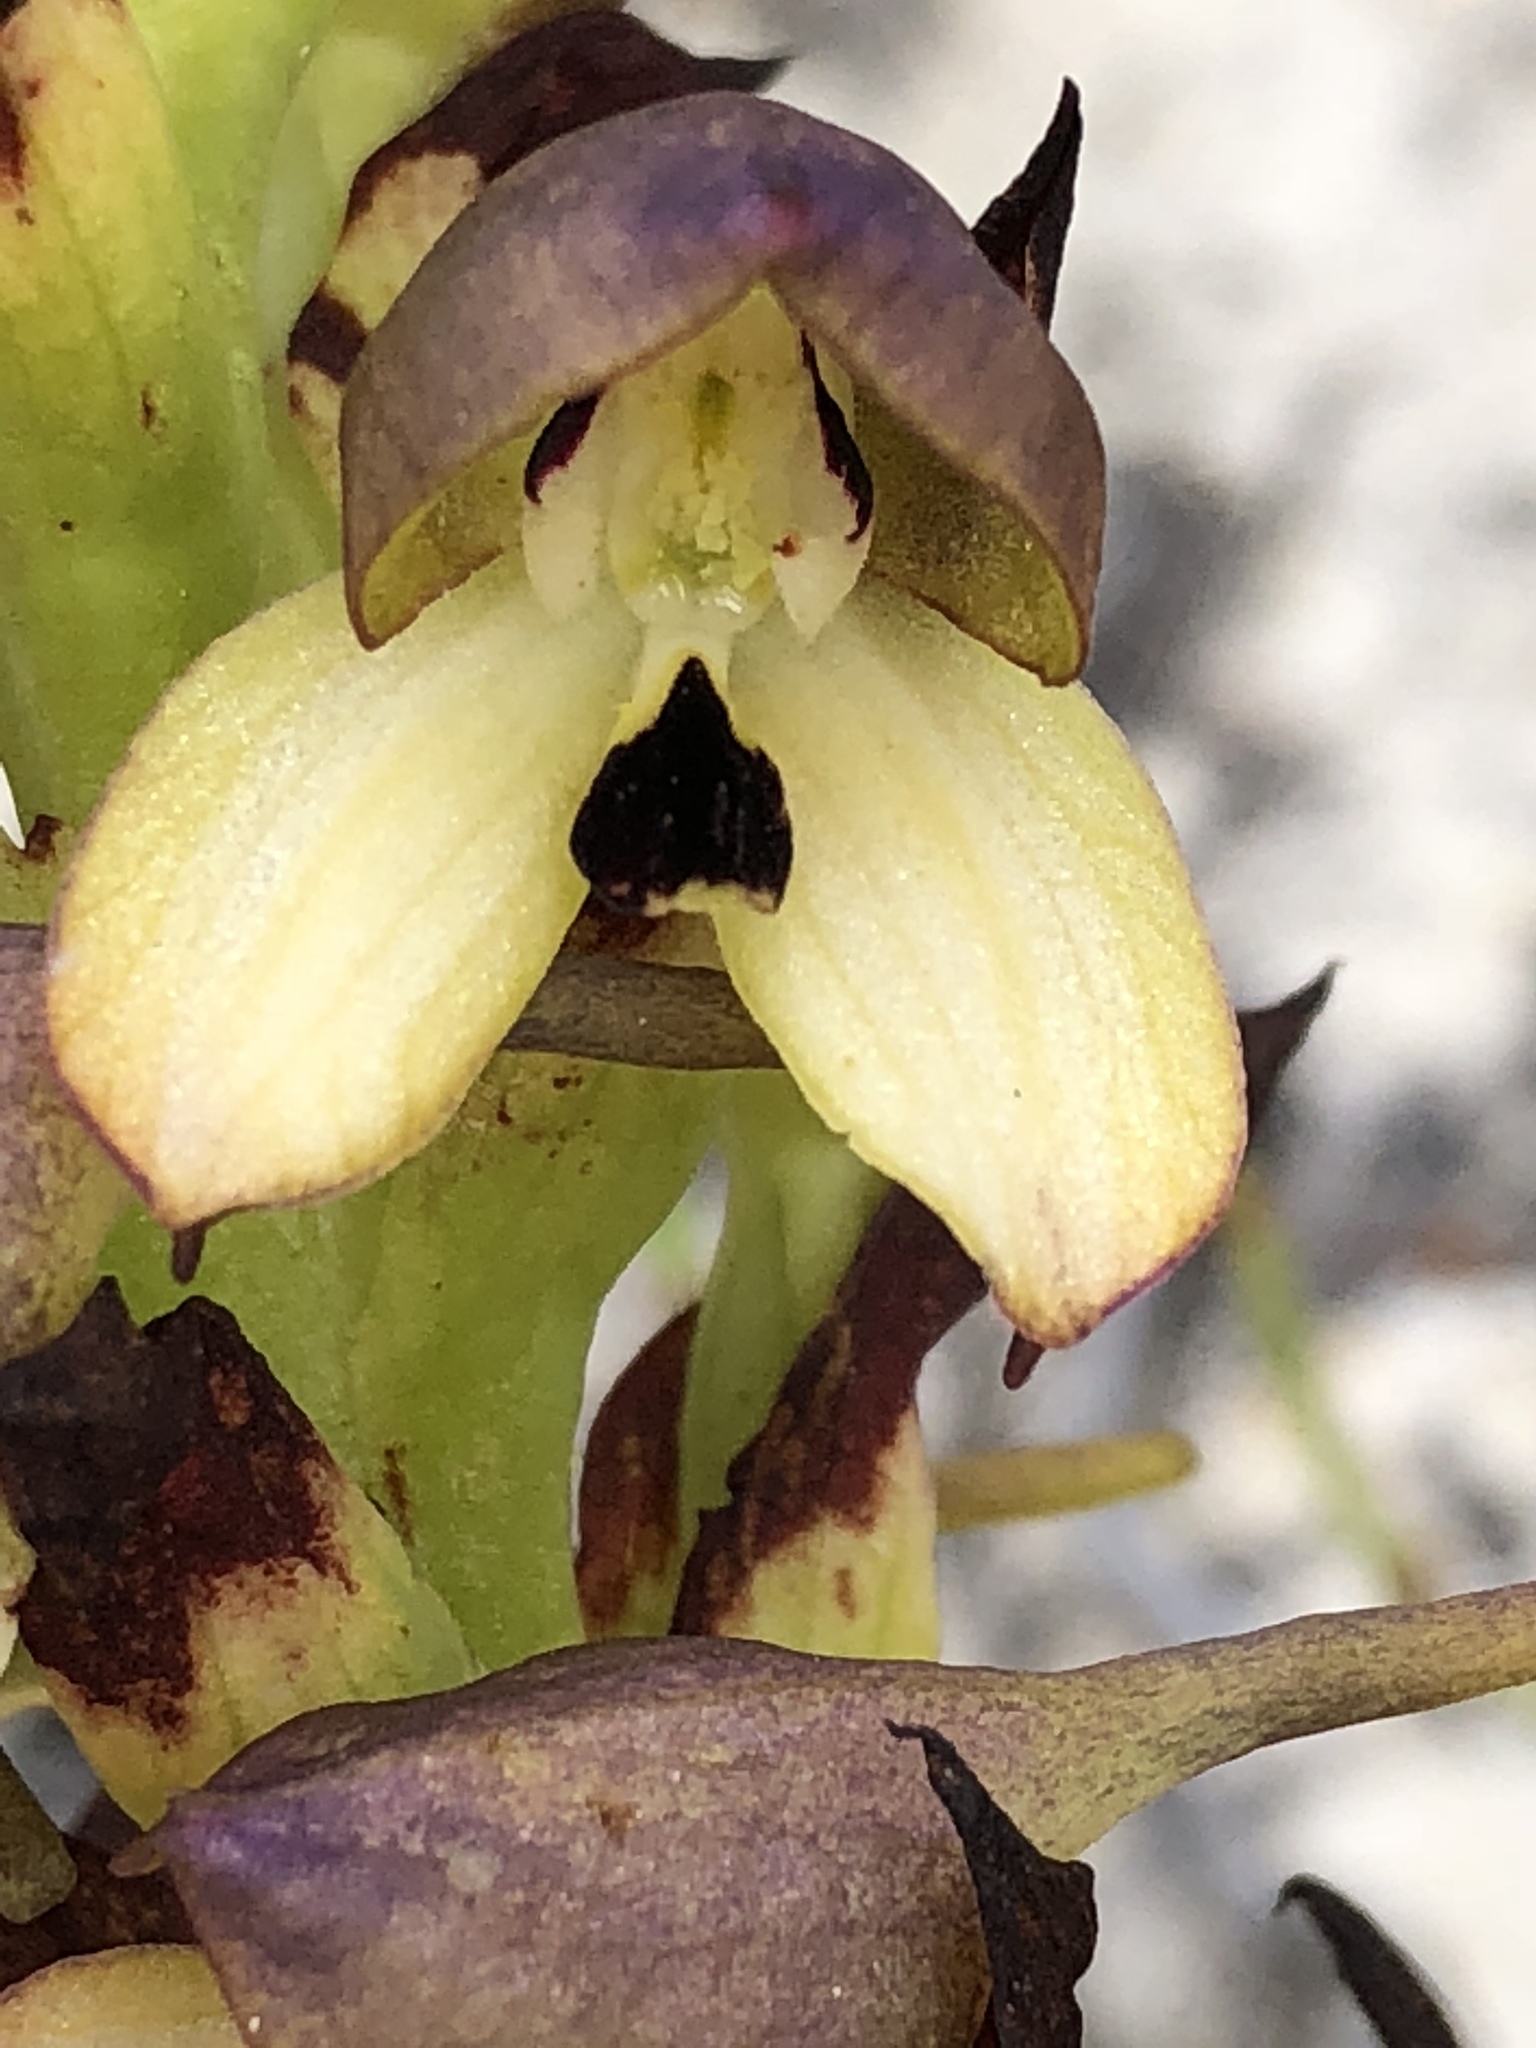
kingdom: Plantae
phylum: Tracheophyta
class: Liliopsida
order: Asparagales
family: Orchidaceae
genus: Disa
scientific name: Disa cornuta
